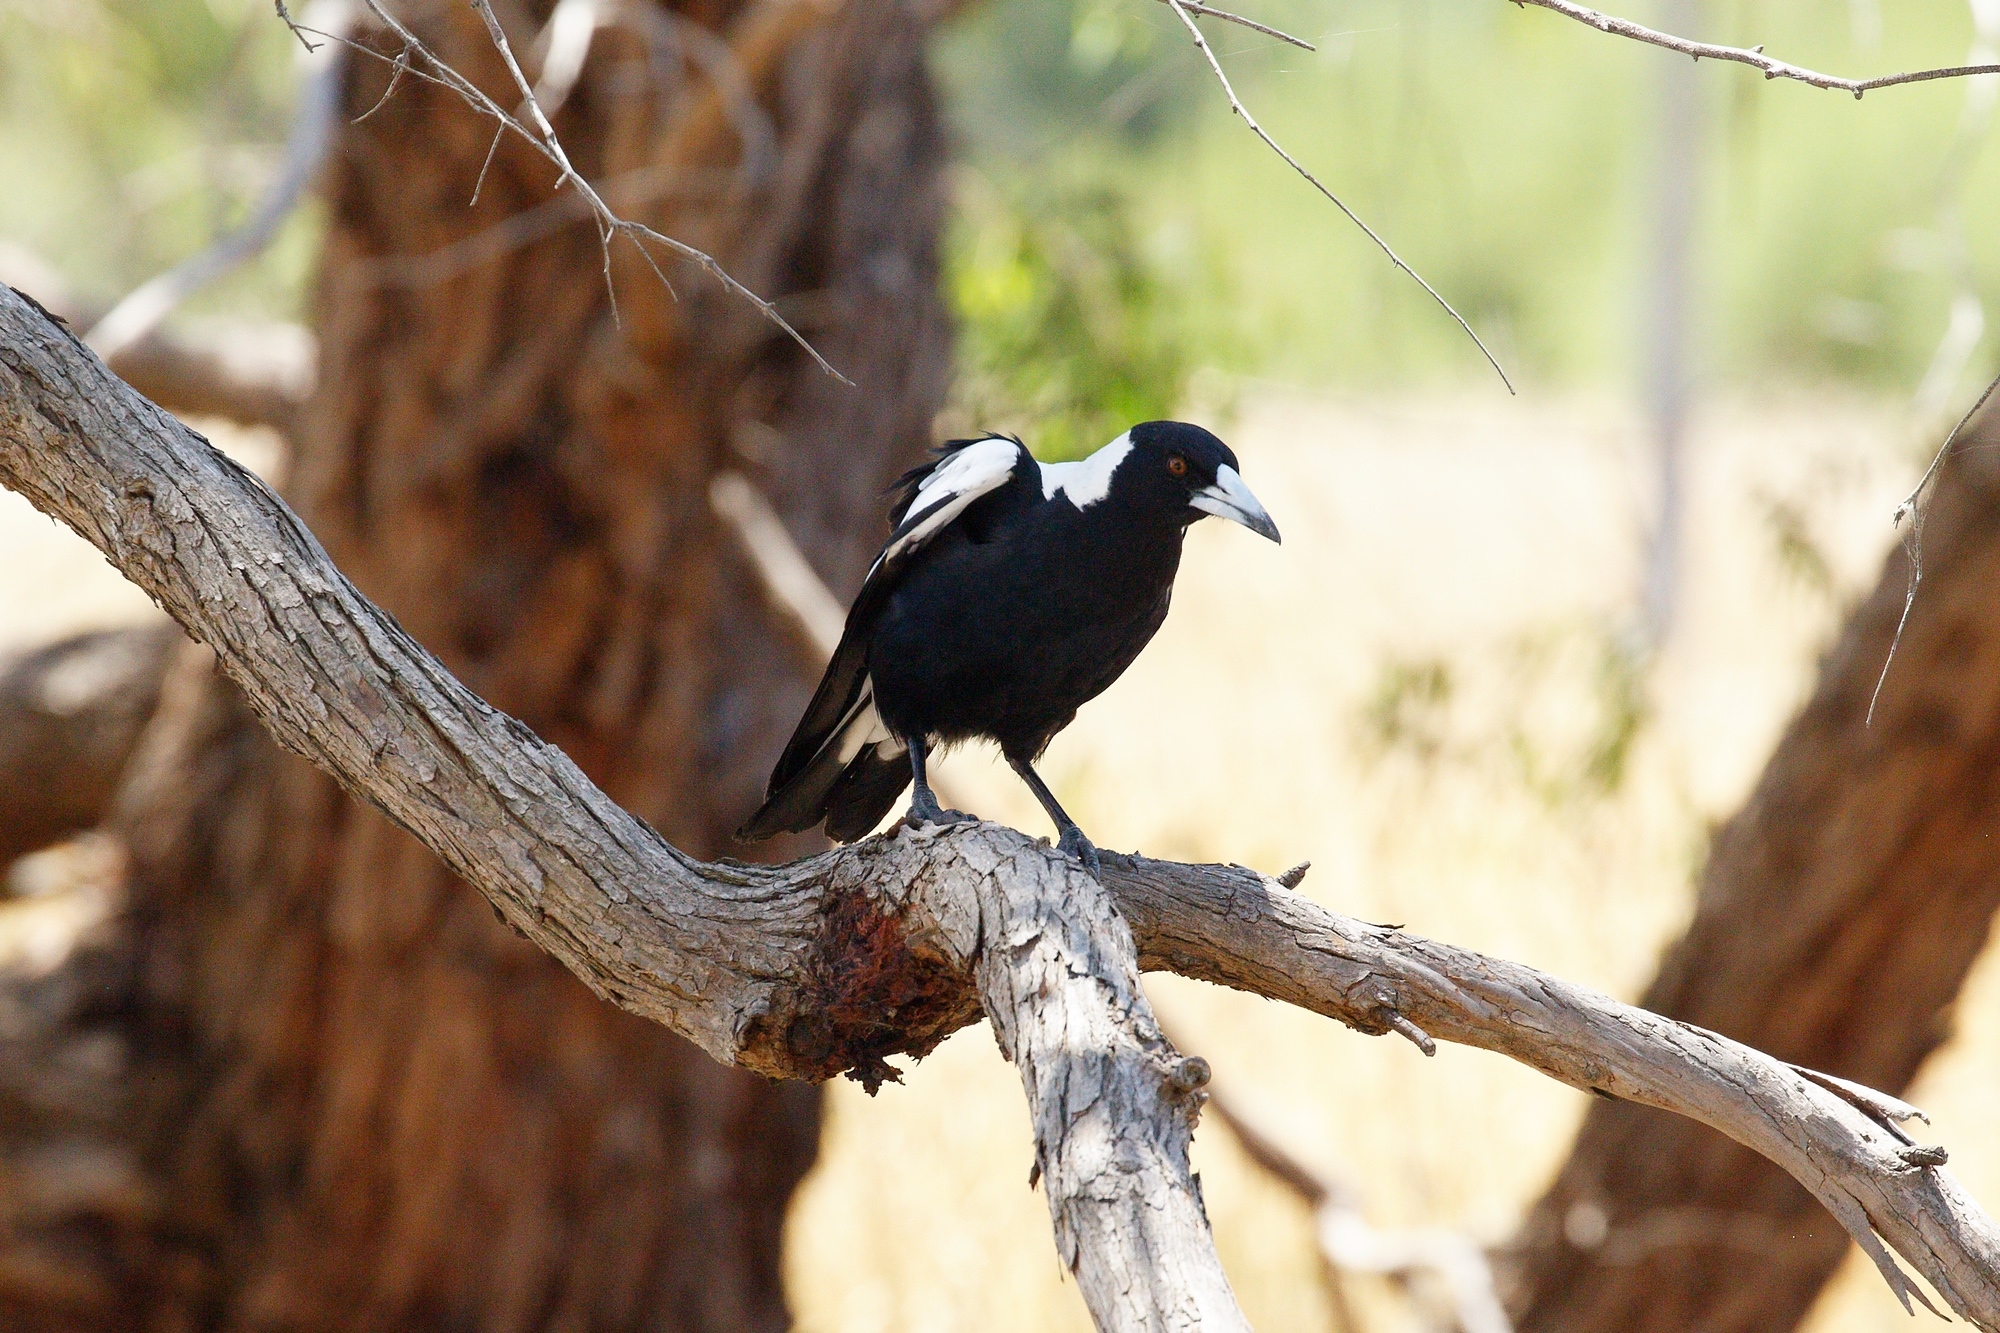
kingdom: Animalia
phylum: Chordata
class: Aves
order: Passeriformes
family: Cracticidae
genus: Gymnorhina
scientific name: Gymnorhina tibicen
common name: Australian magpie
